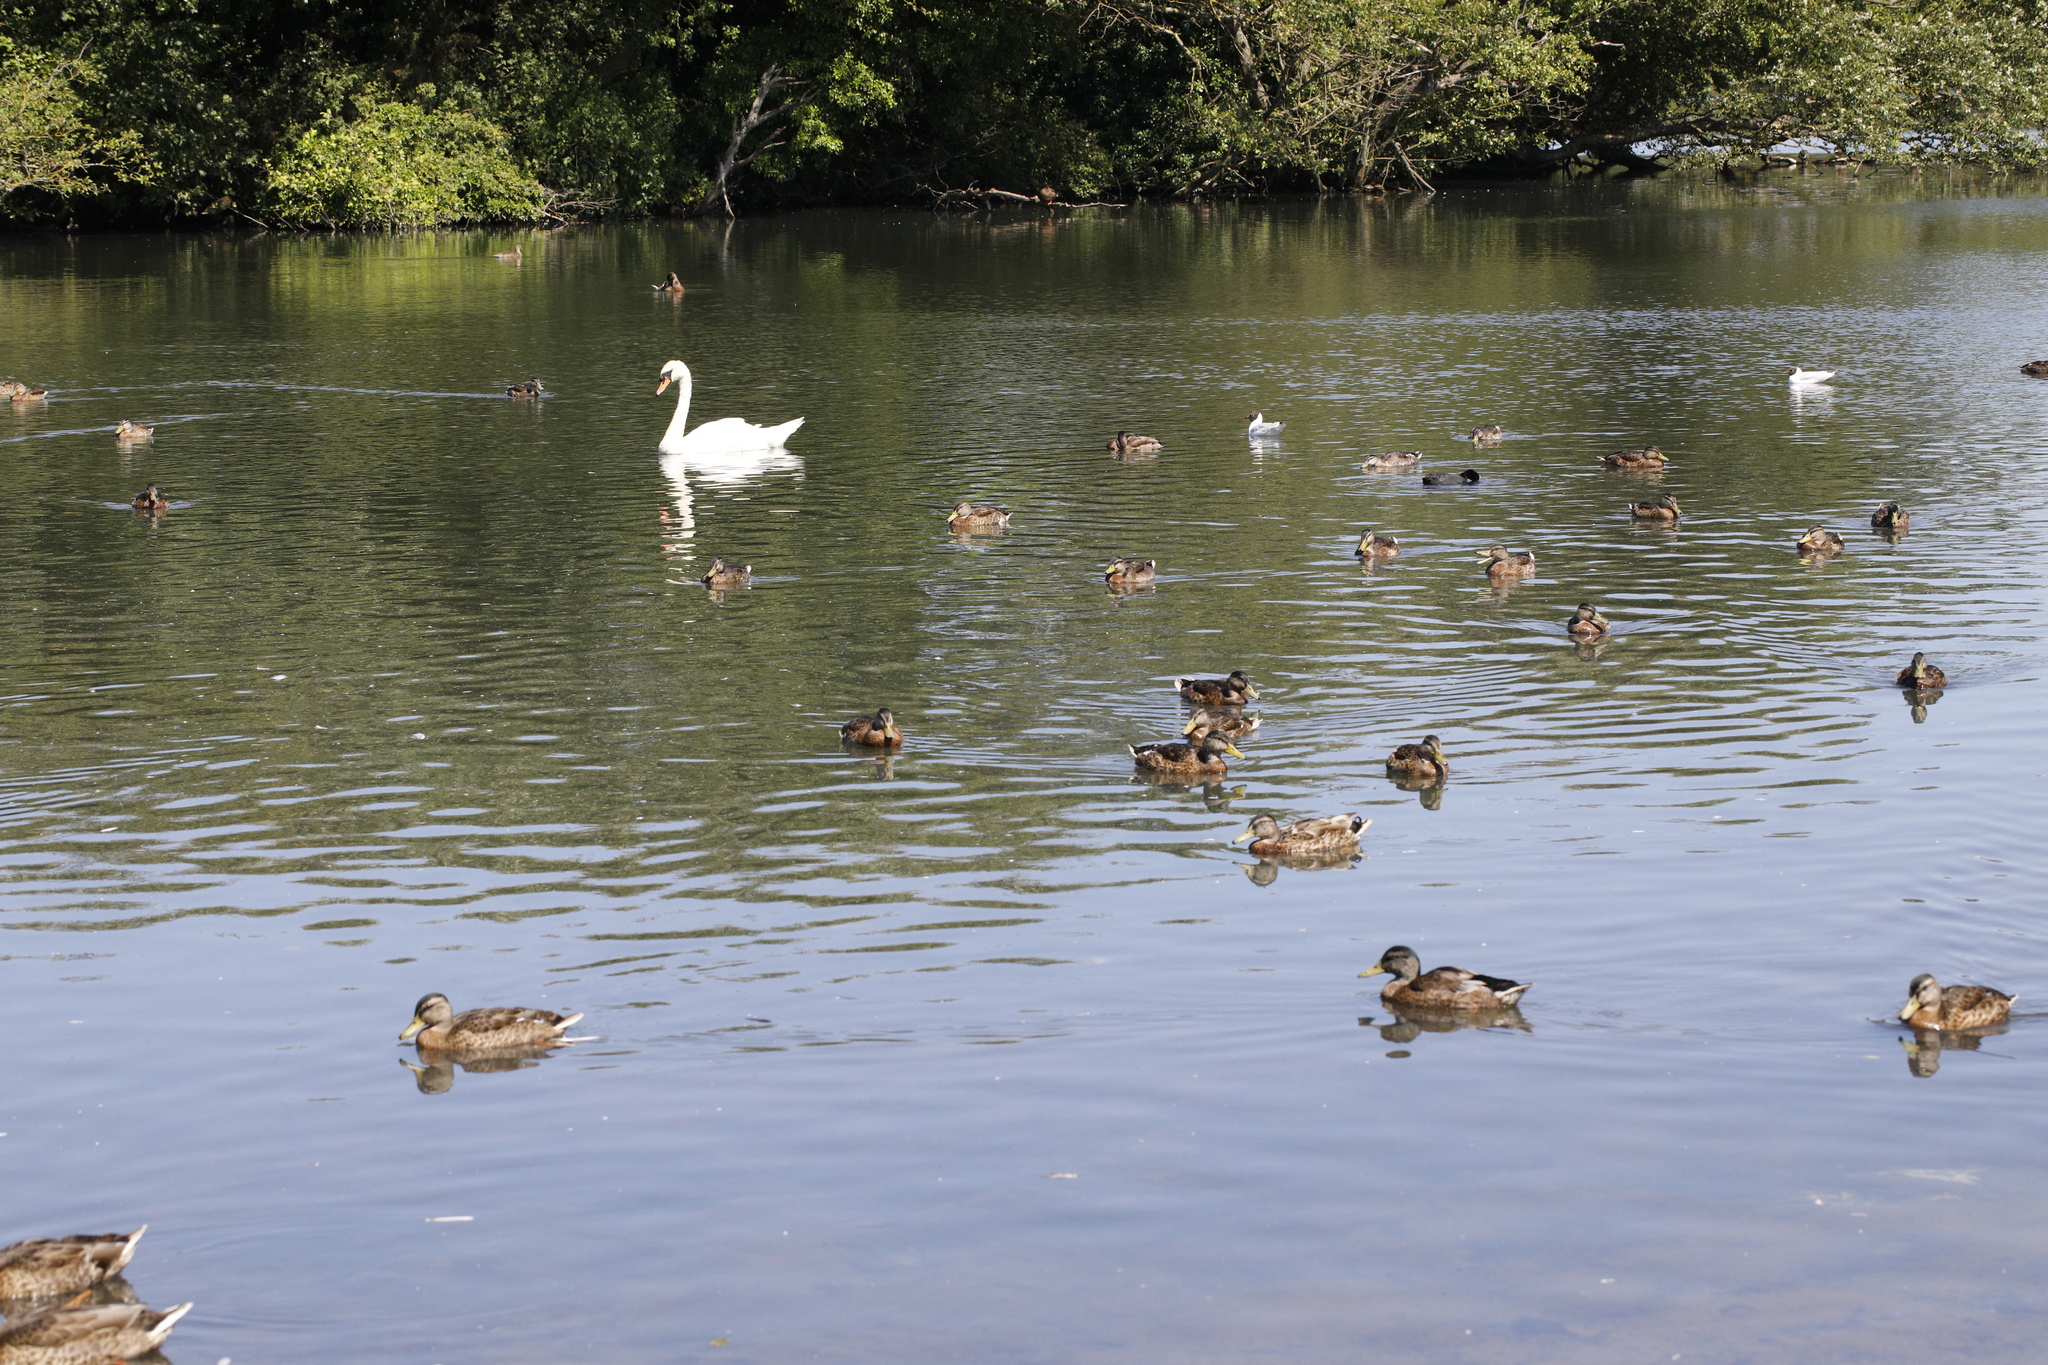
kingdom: Animalia
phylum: Chordata
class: Aves
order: Anseriformes
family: Anatidae
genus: Cygnus
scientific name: Cygnus olor
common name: Mute swan
